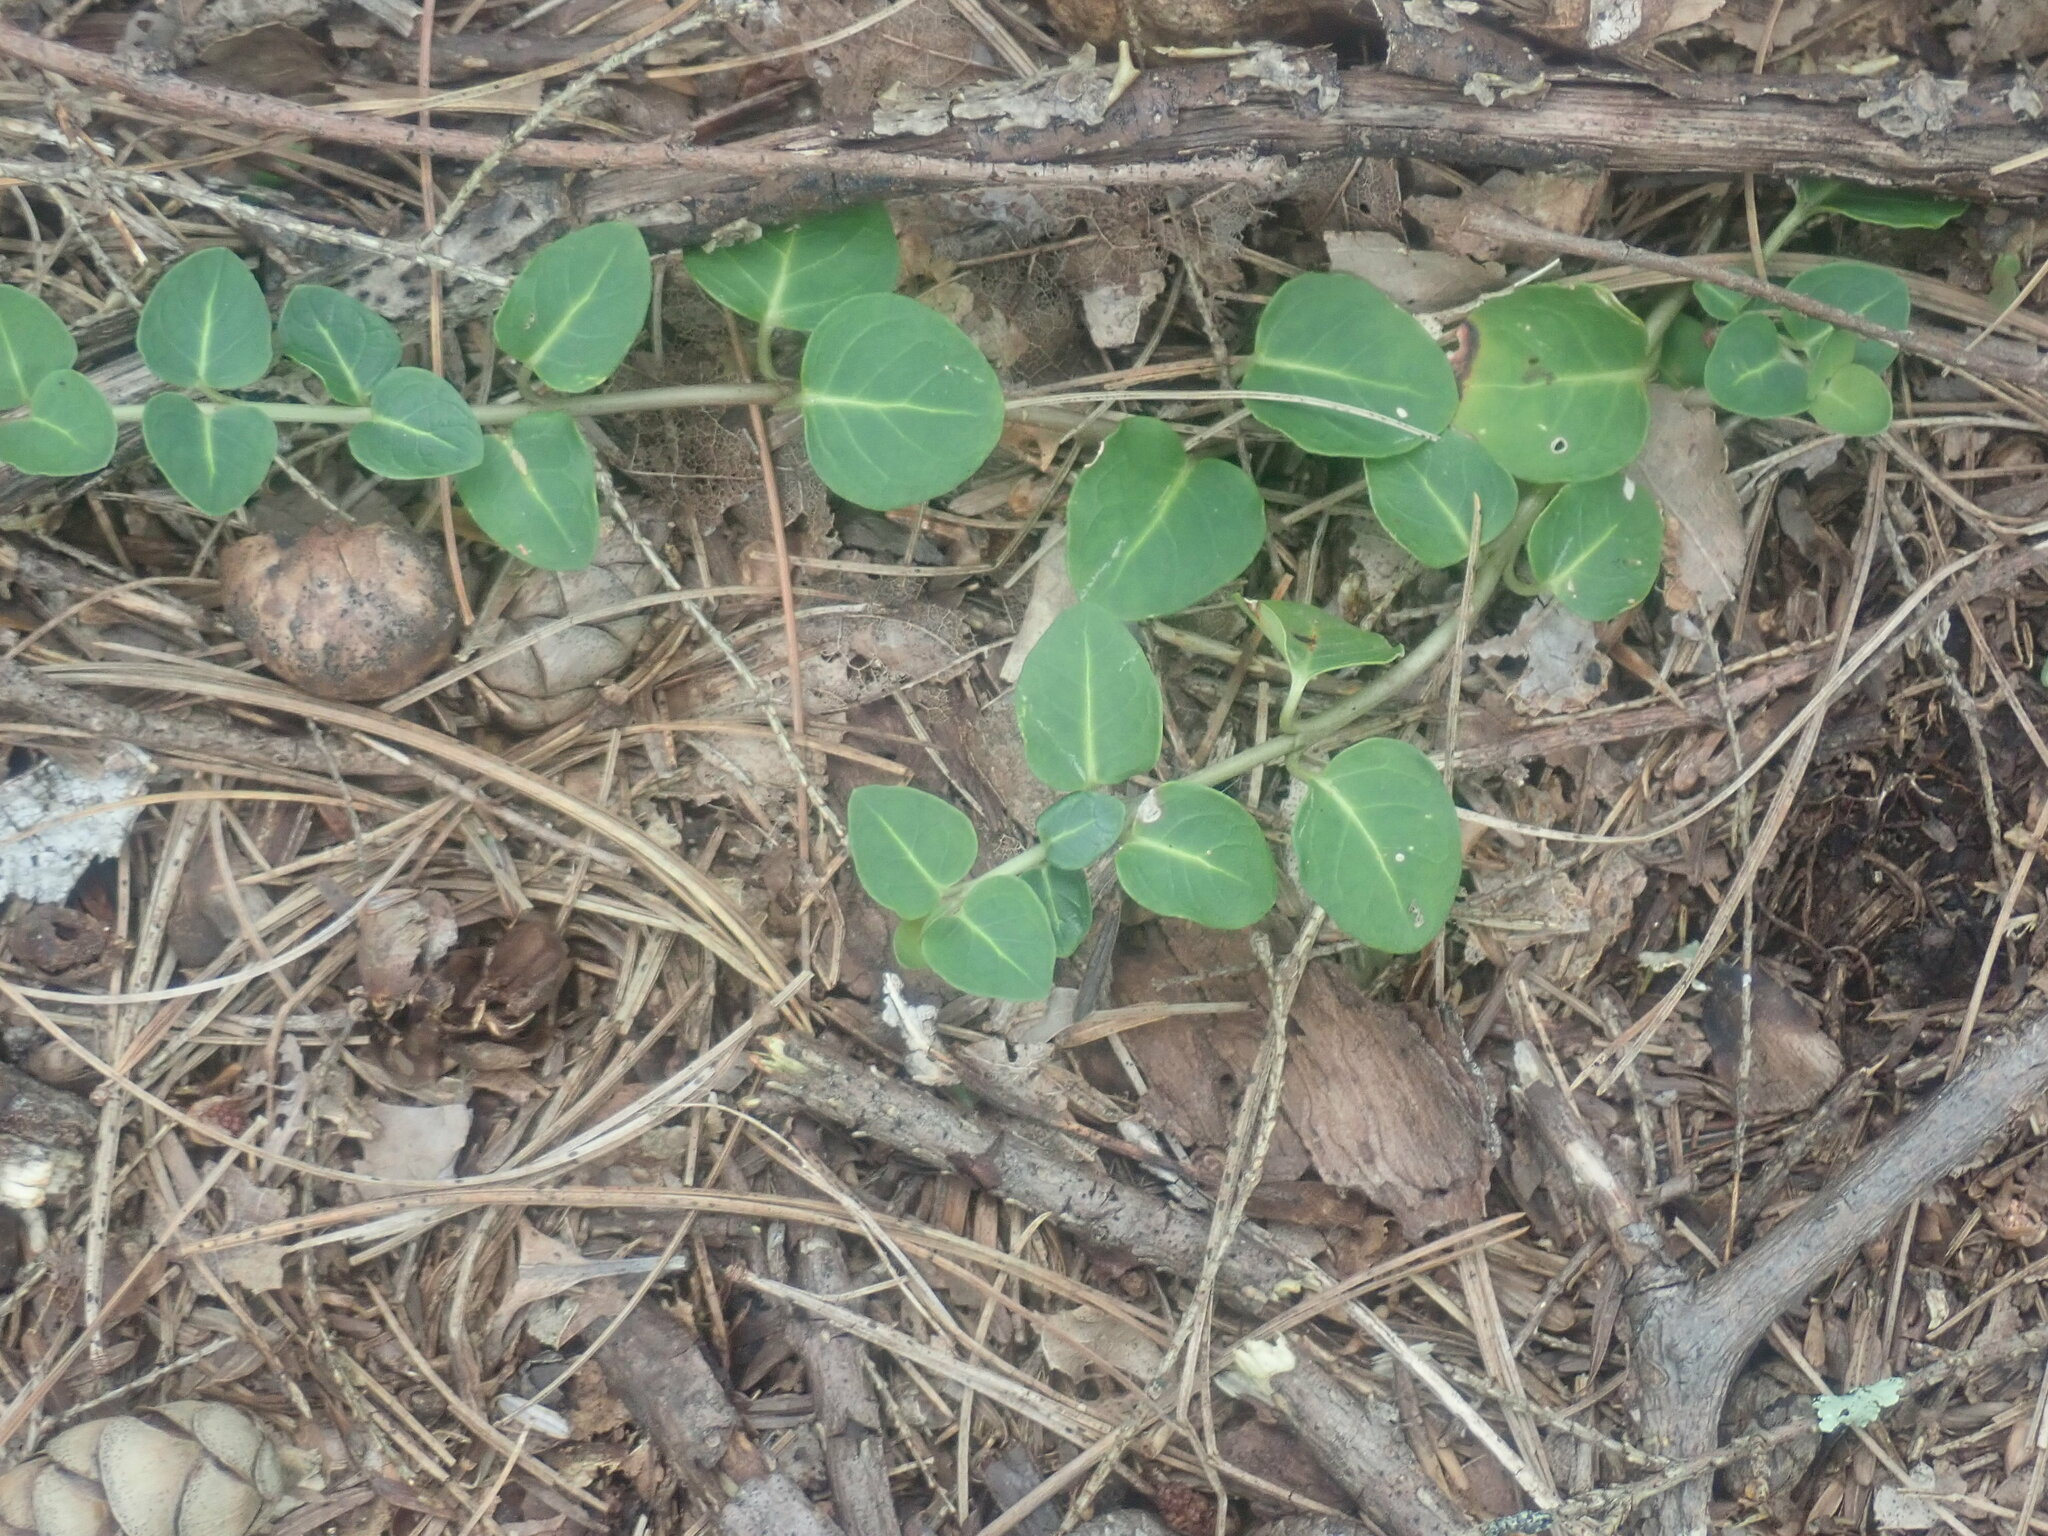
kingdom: Plantae
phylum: Tracheophyta
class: Magnoliopsida
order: Gentianales
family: Rubiaceae
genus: Mitchella
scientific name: Mitchella repens
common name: Partridge-berry
